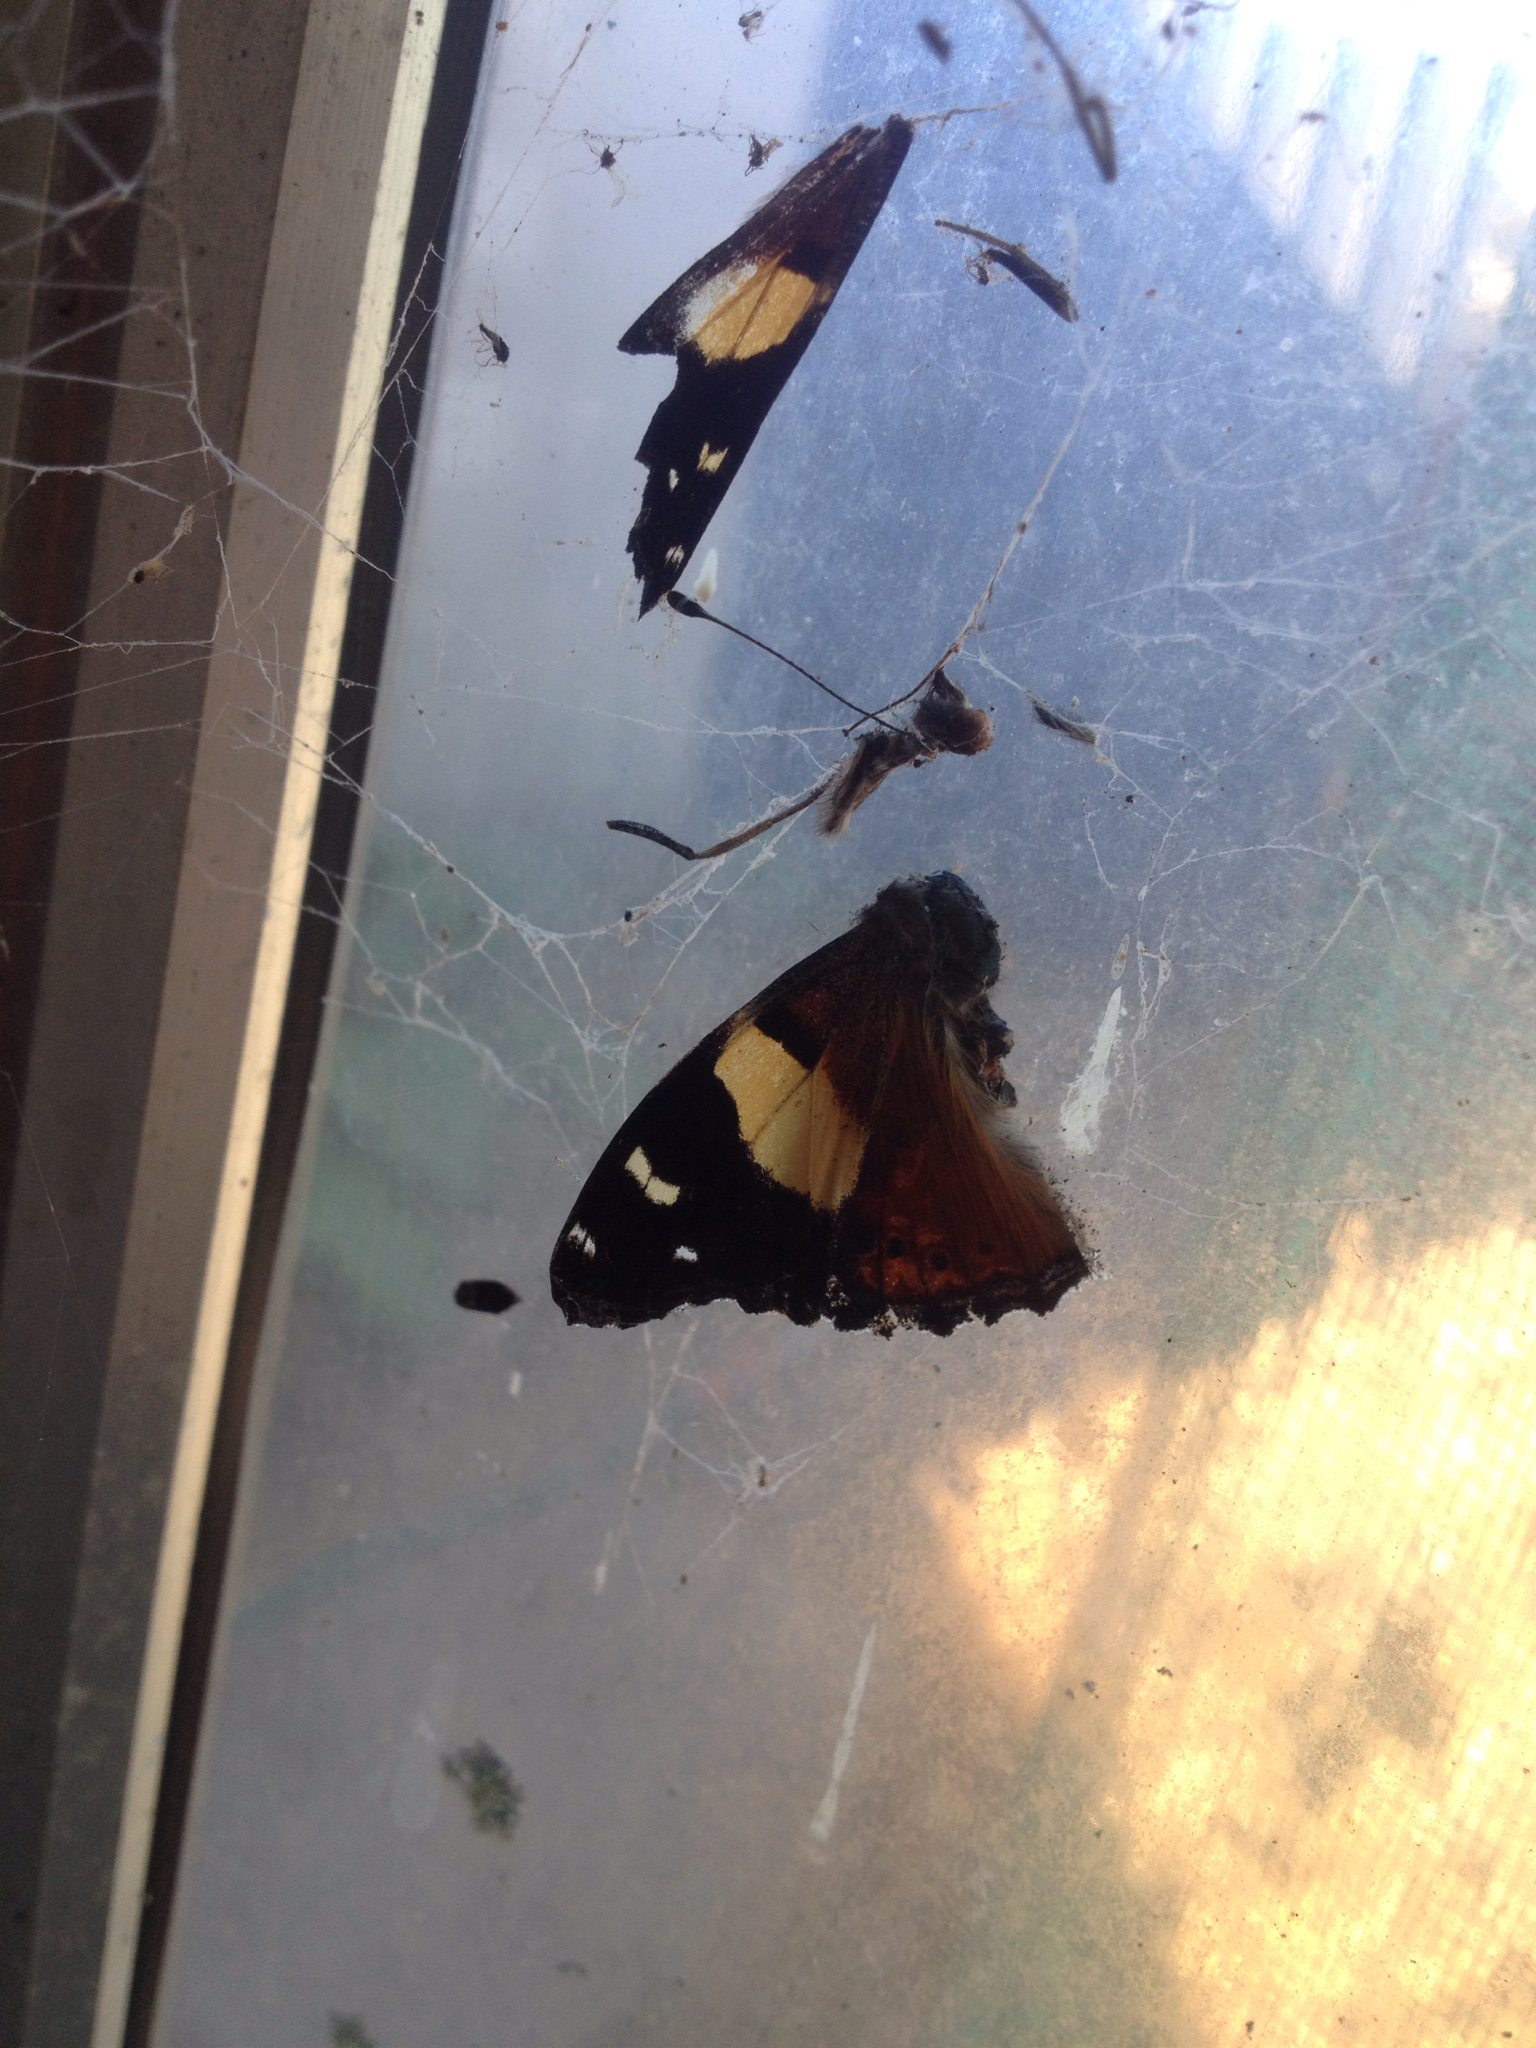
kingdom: Animalia
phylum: Arthropoda
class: Insecta
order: Lepidoptera
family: Nymphalidae
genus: Vanessa
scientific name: Vanessa itea
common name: Yellow admiral
